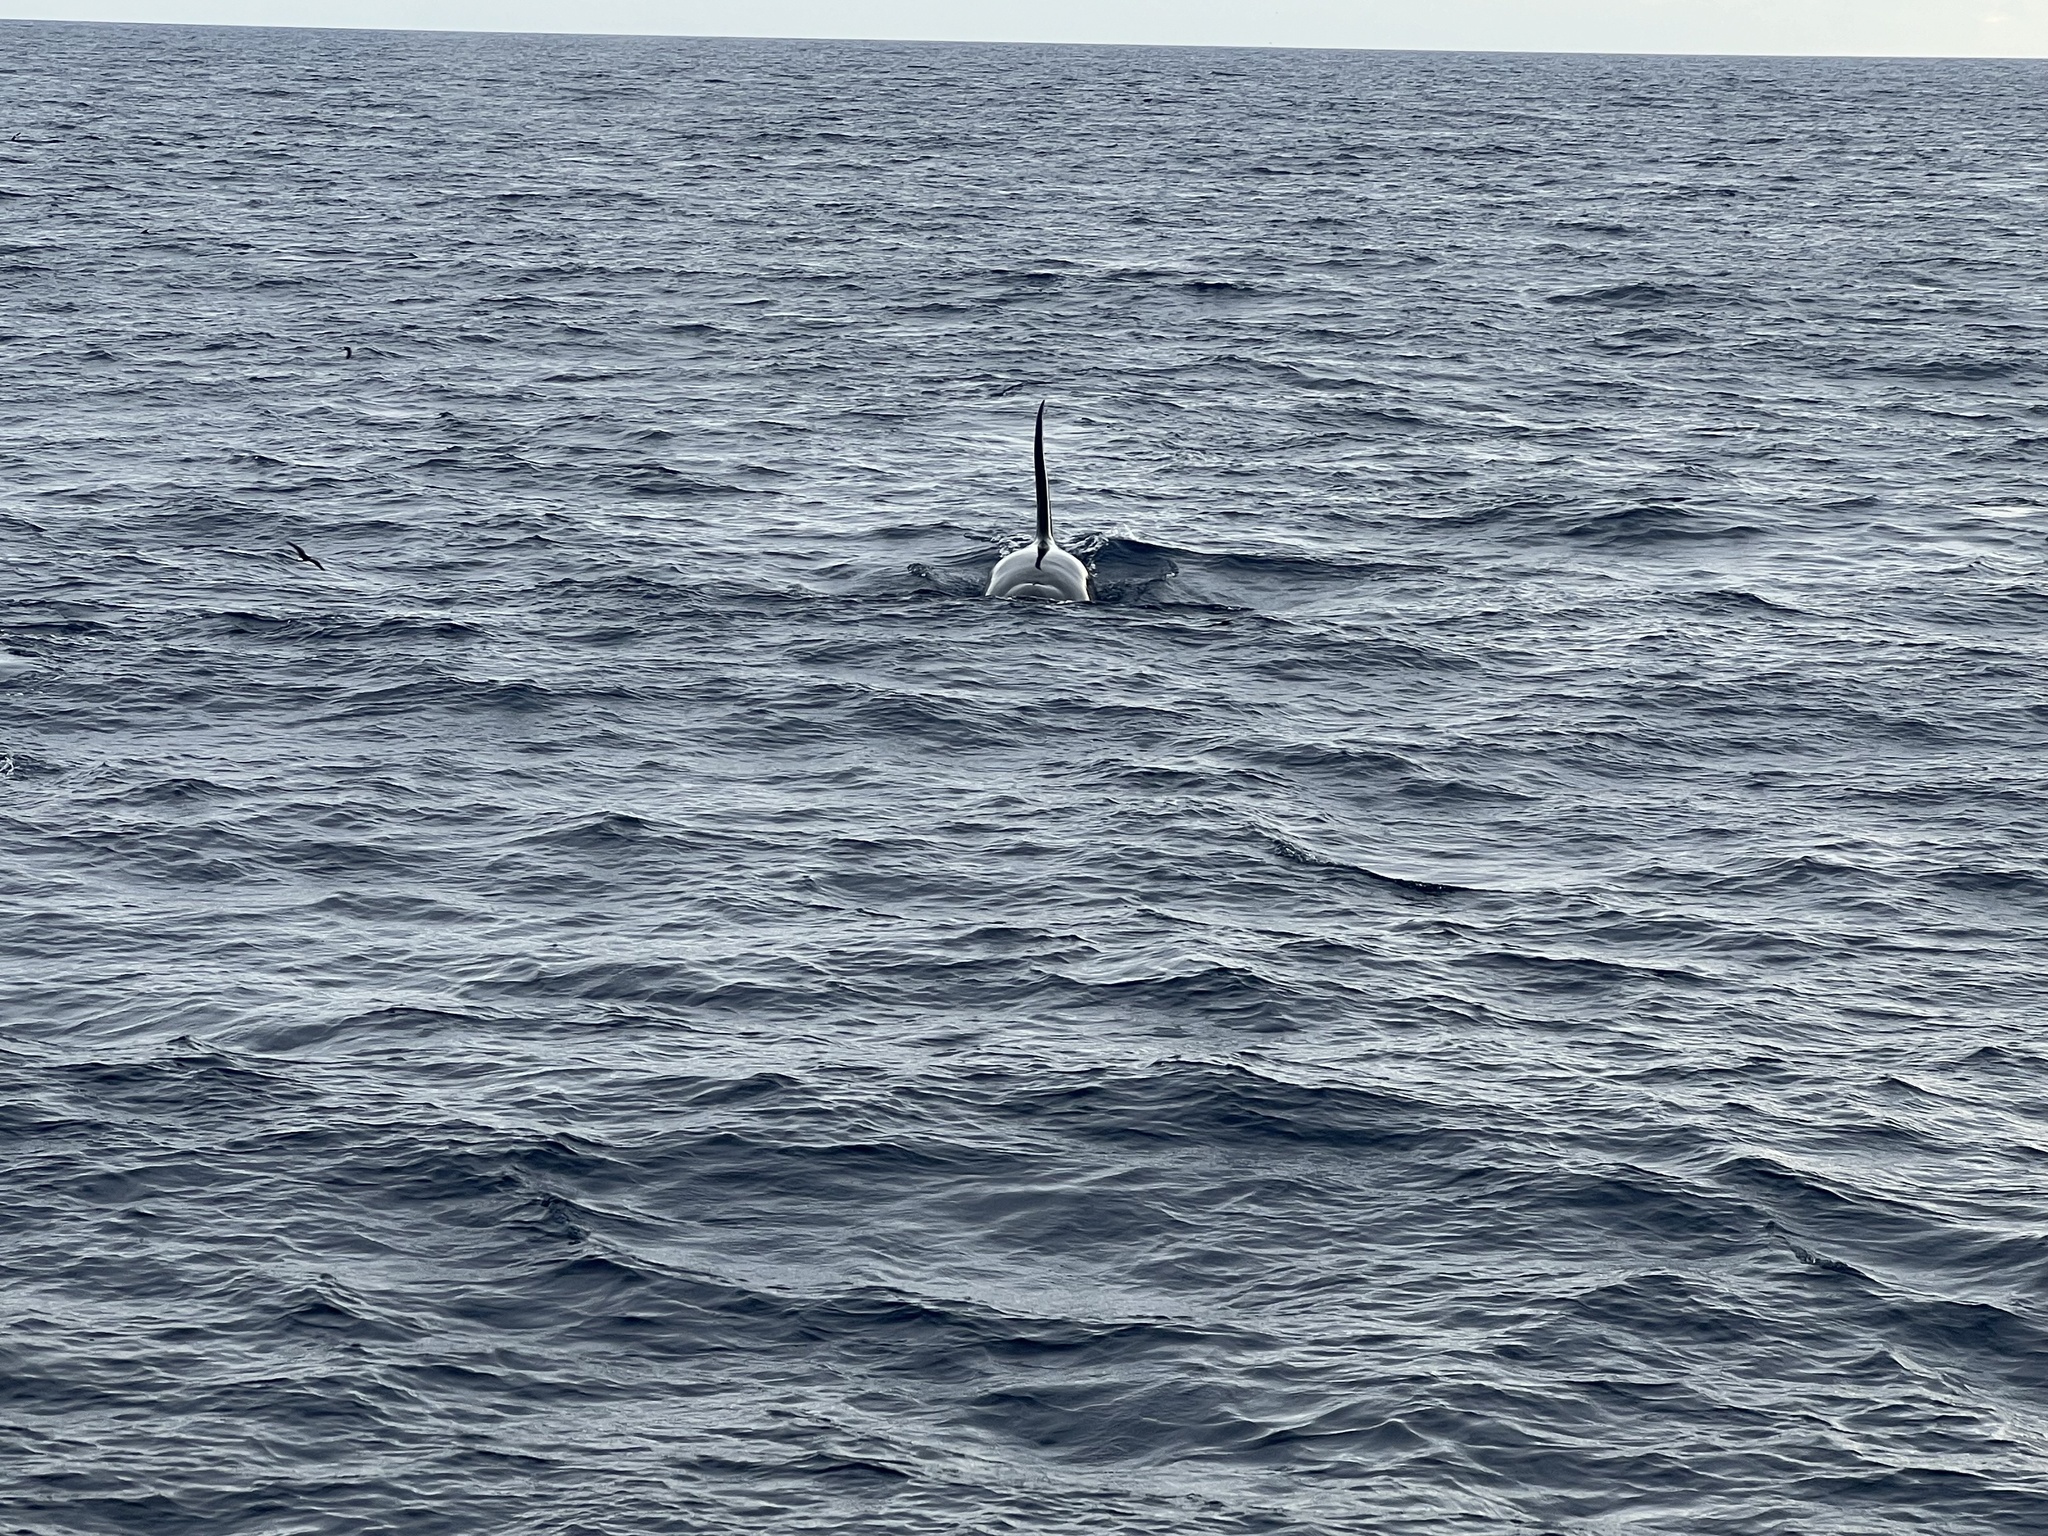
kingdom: Animalia
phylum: Chordata
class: Mammalia
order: Cetacea
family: Delphinidae
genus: Orcinus
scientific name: Orcinus orca
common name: Killer whale
